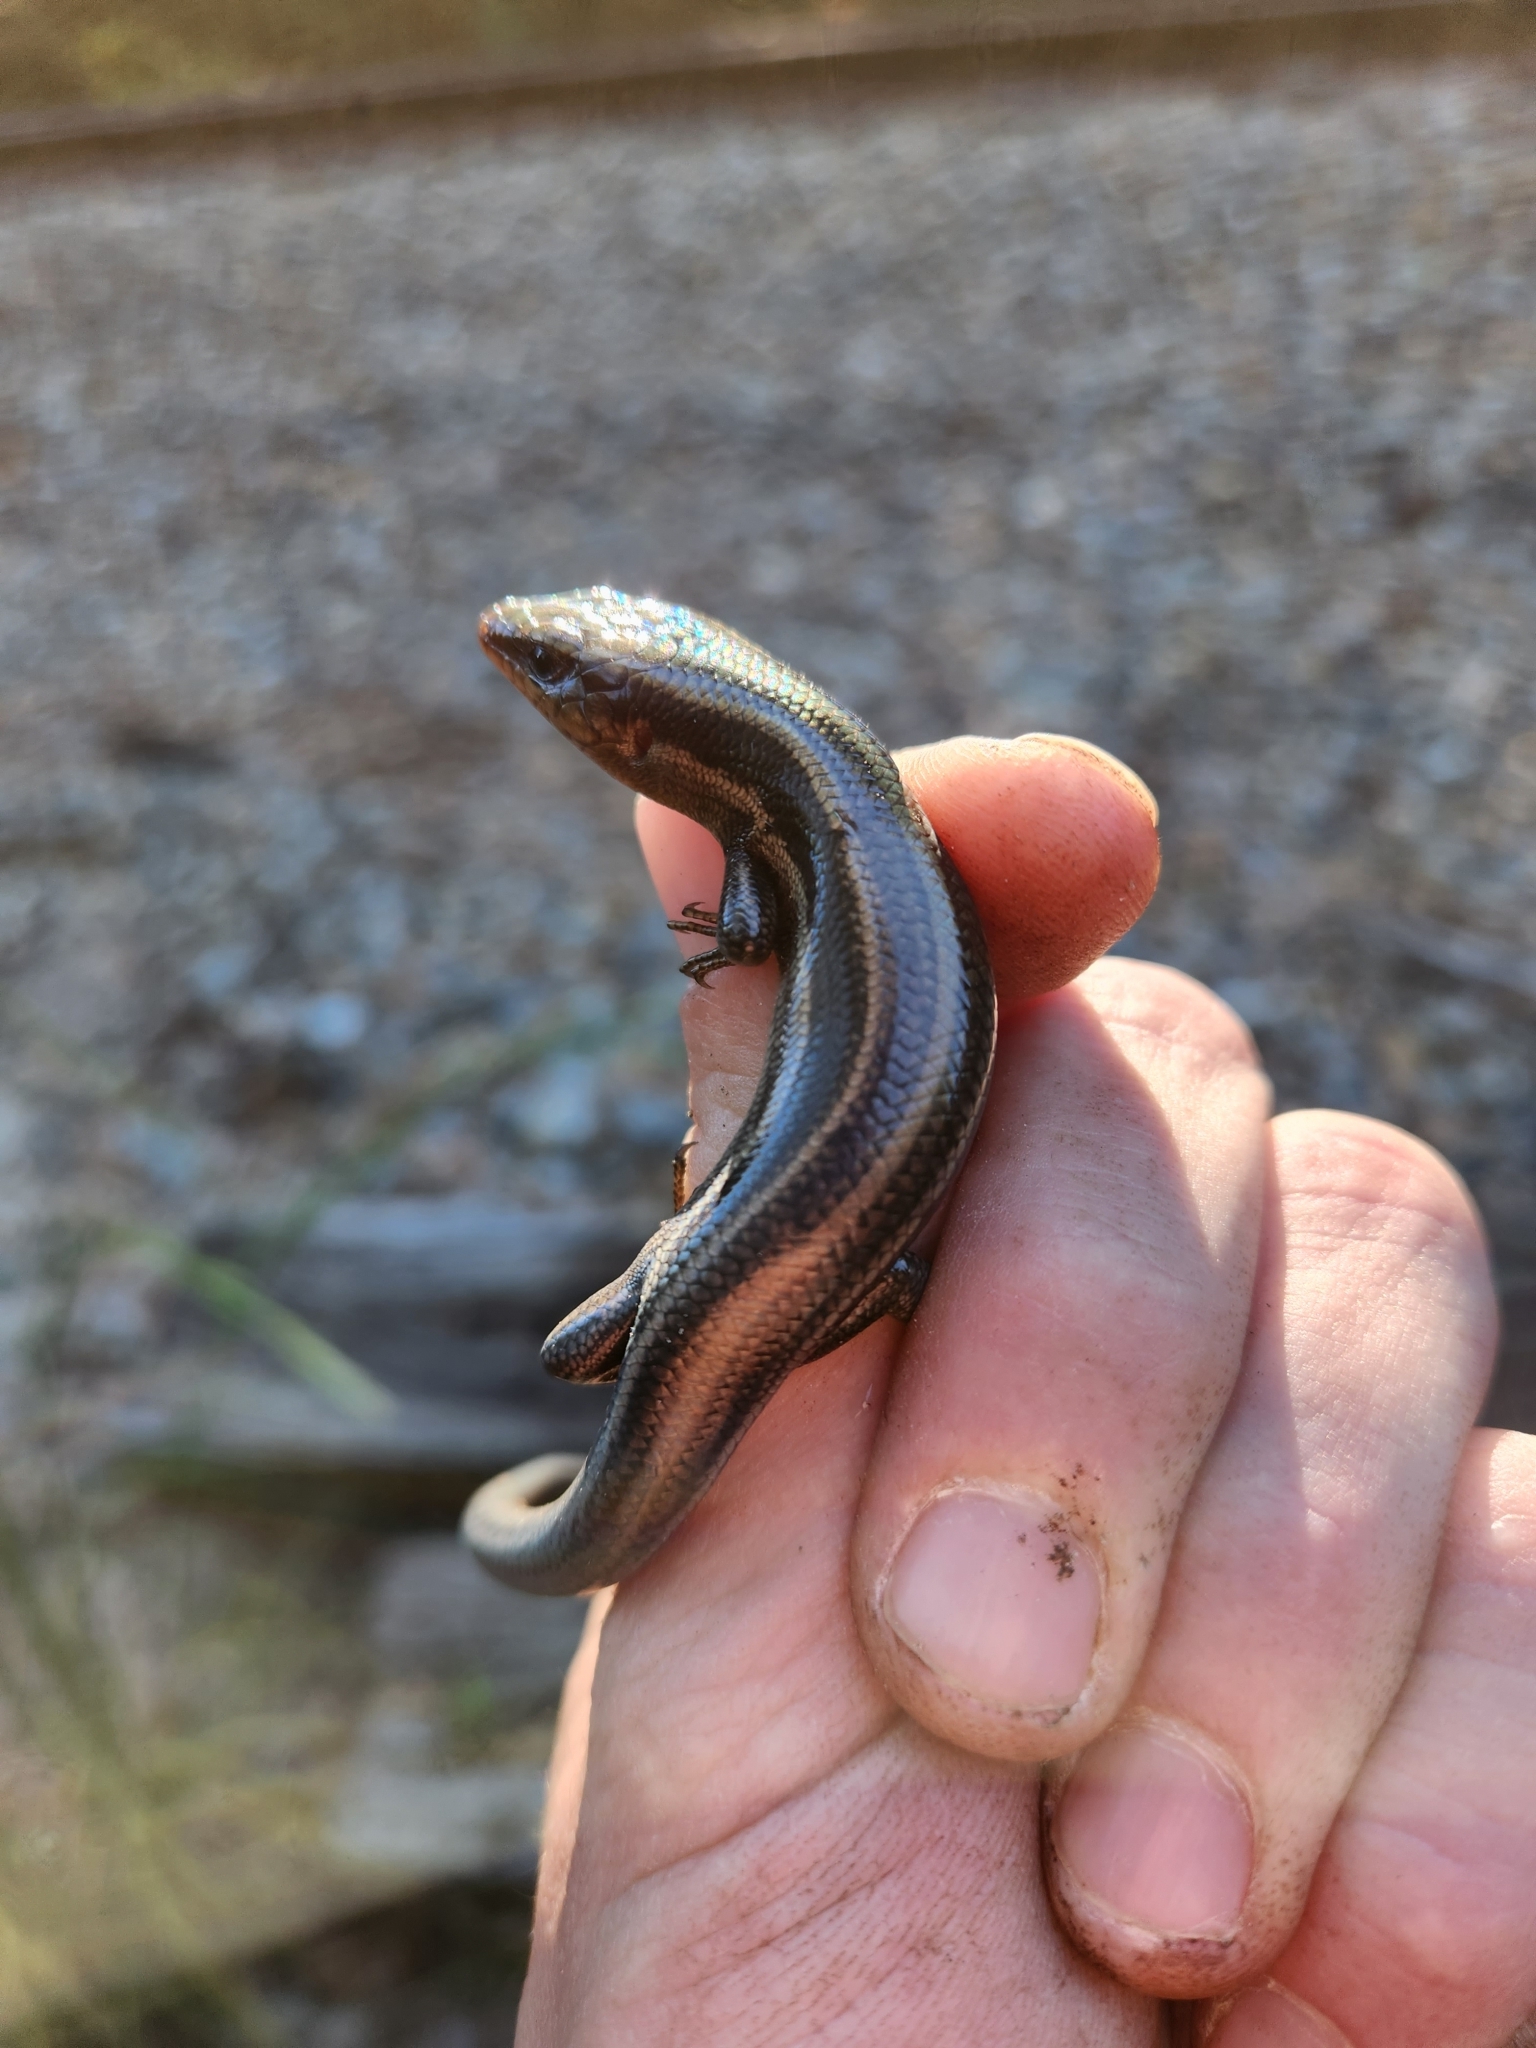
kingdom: Animalia
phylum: Chordata
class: Squamata
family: Scincidae
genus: Plestiodon
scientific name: Plestiodon fasciatus
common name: Five-lined skink
